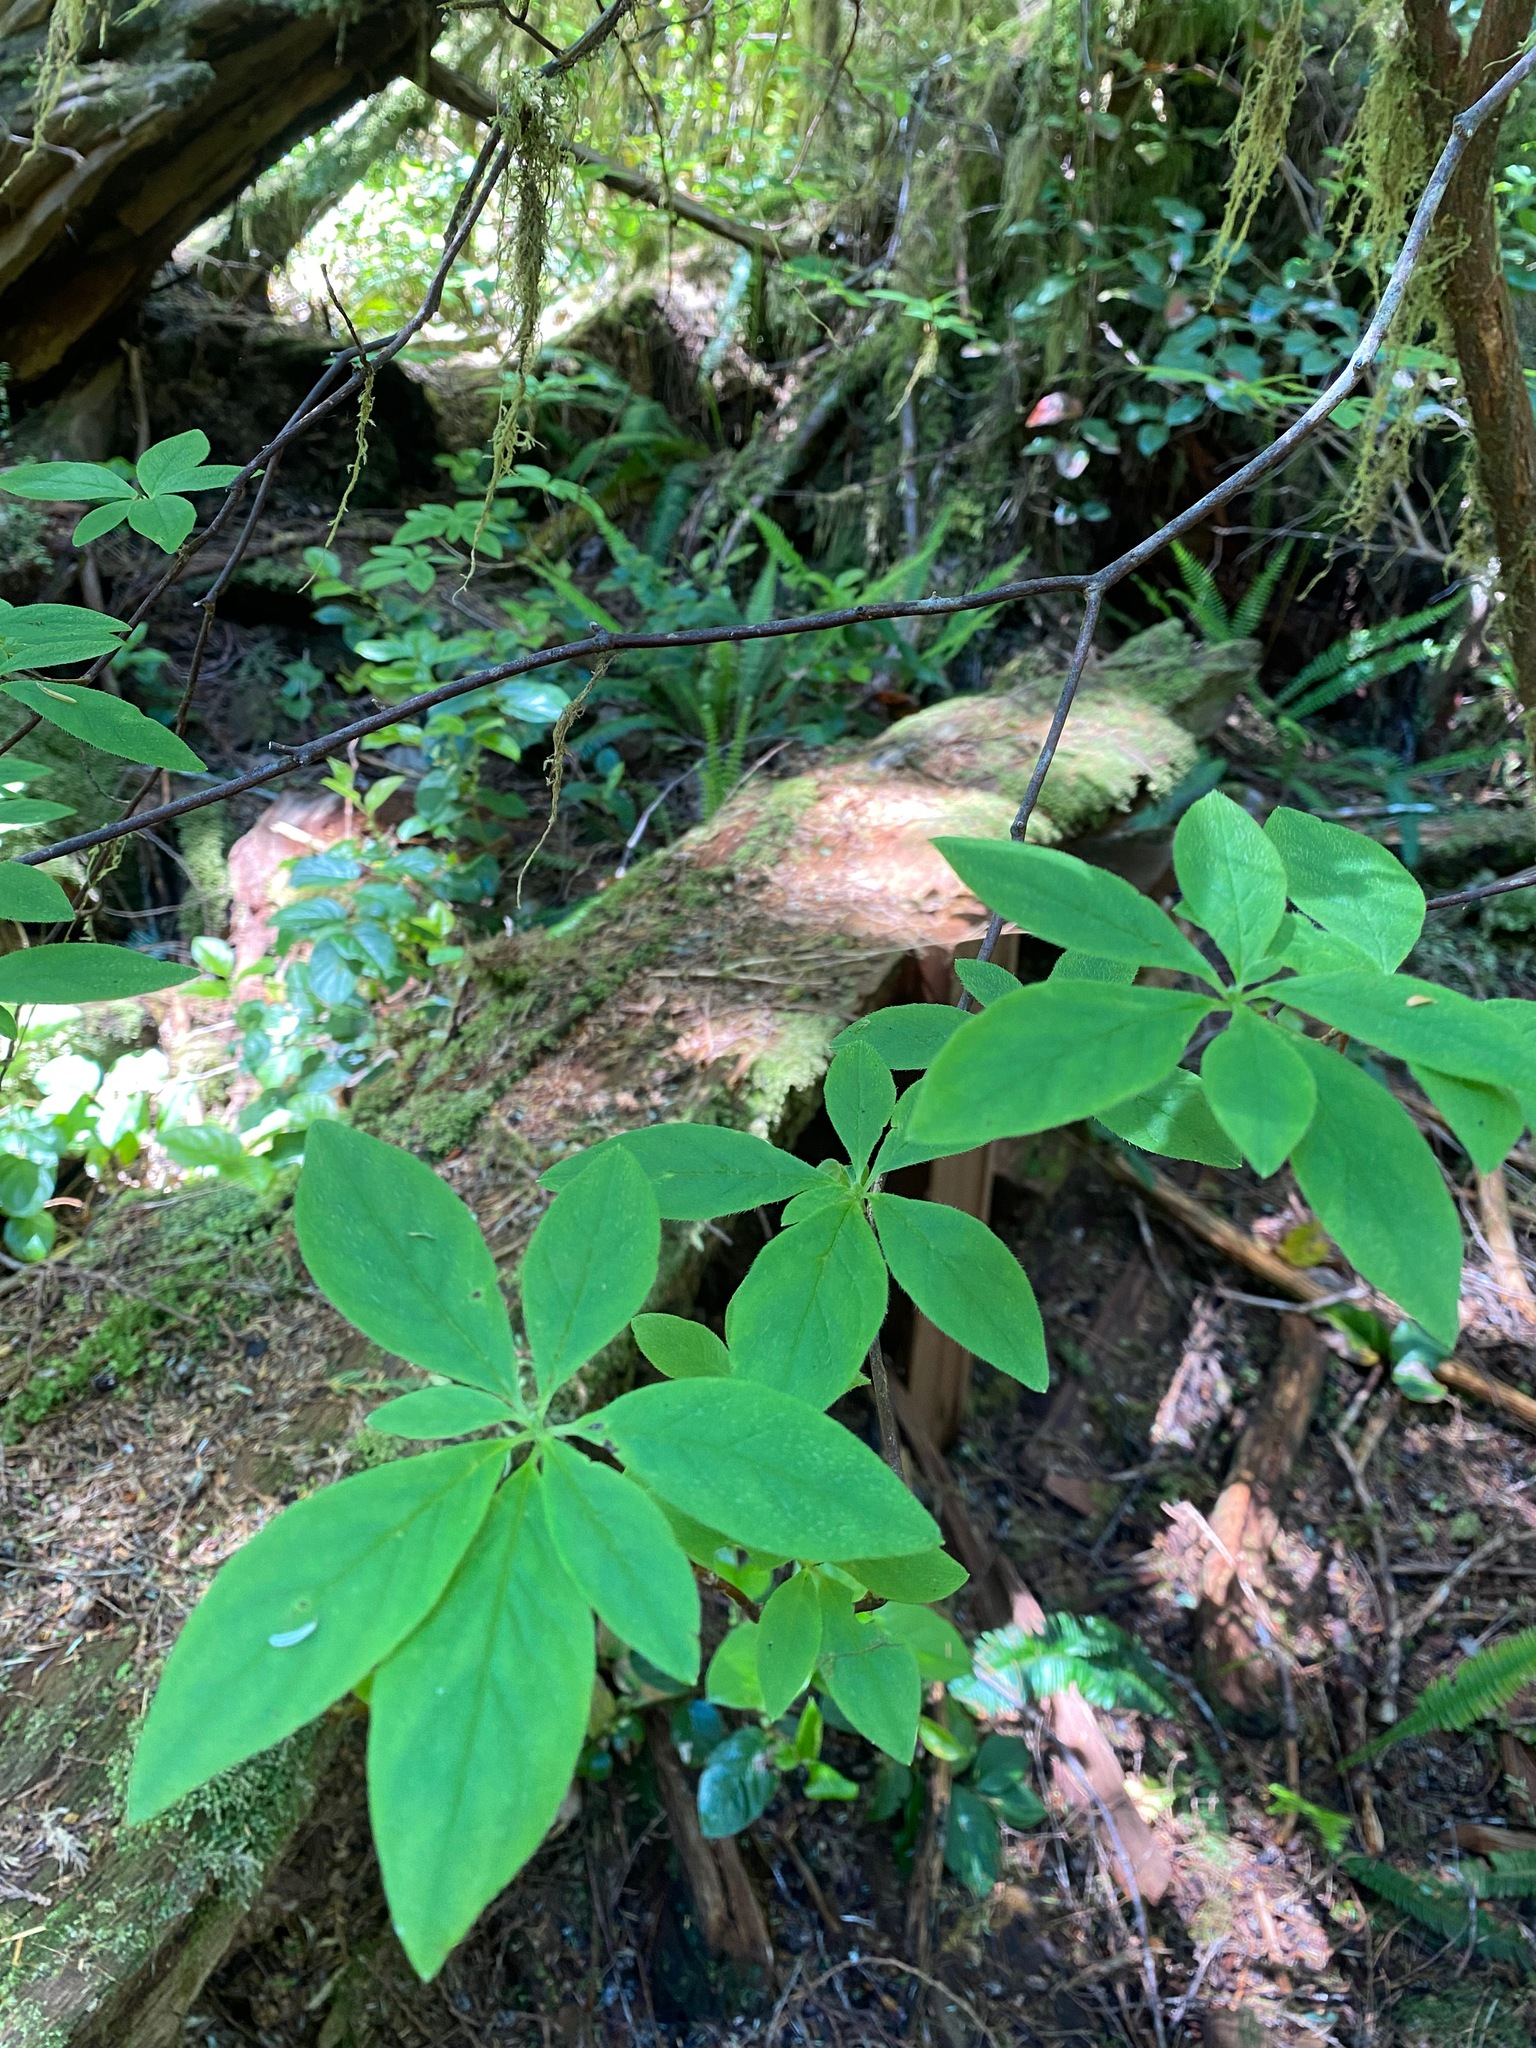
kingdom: Plantae
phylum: Tracheophyta
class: Magnoliopsida
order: Ericales
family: Ericaceae
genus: Rhododendron
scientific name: Rhododendron menziesii
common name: Pacific menziesia
